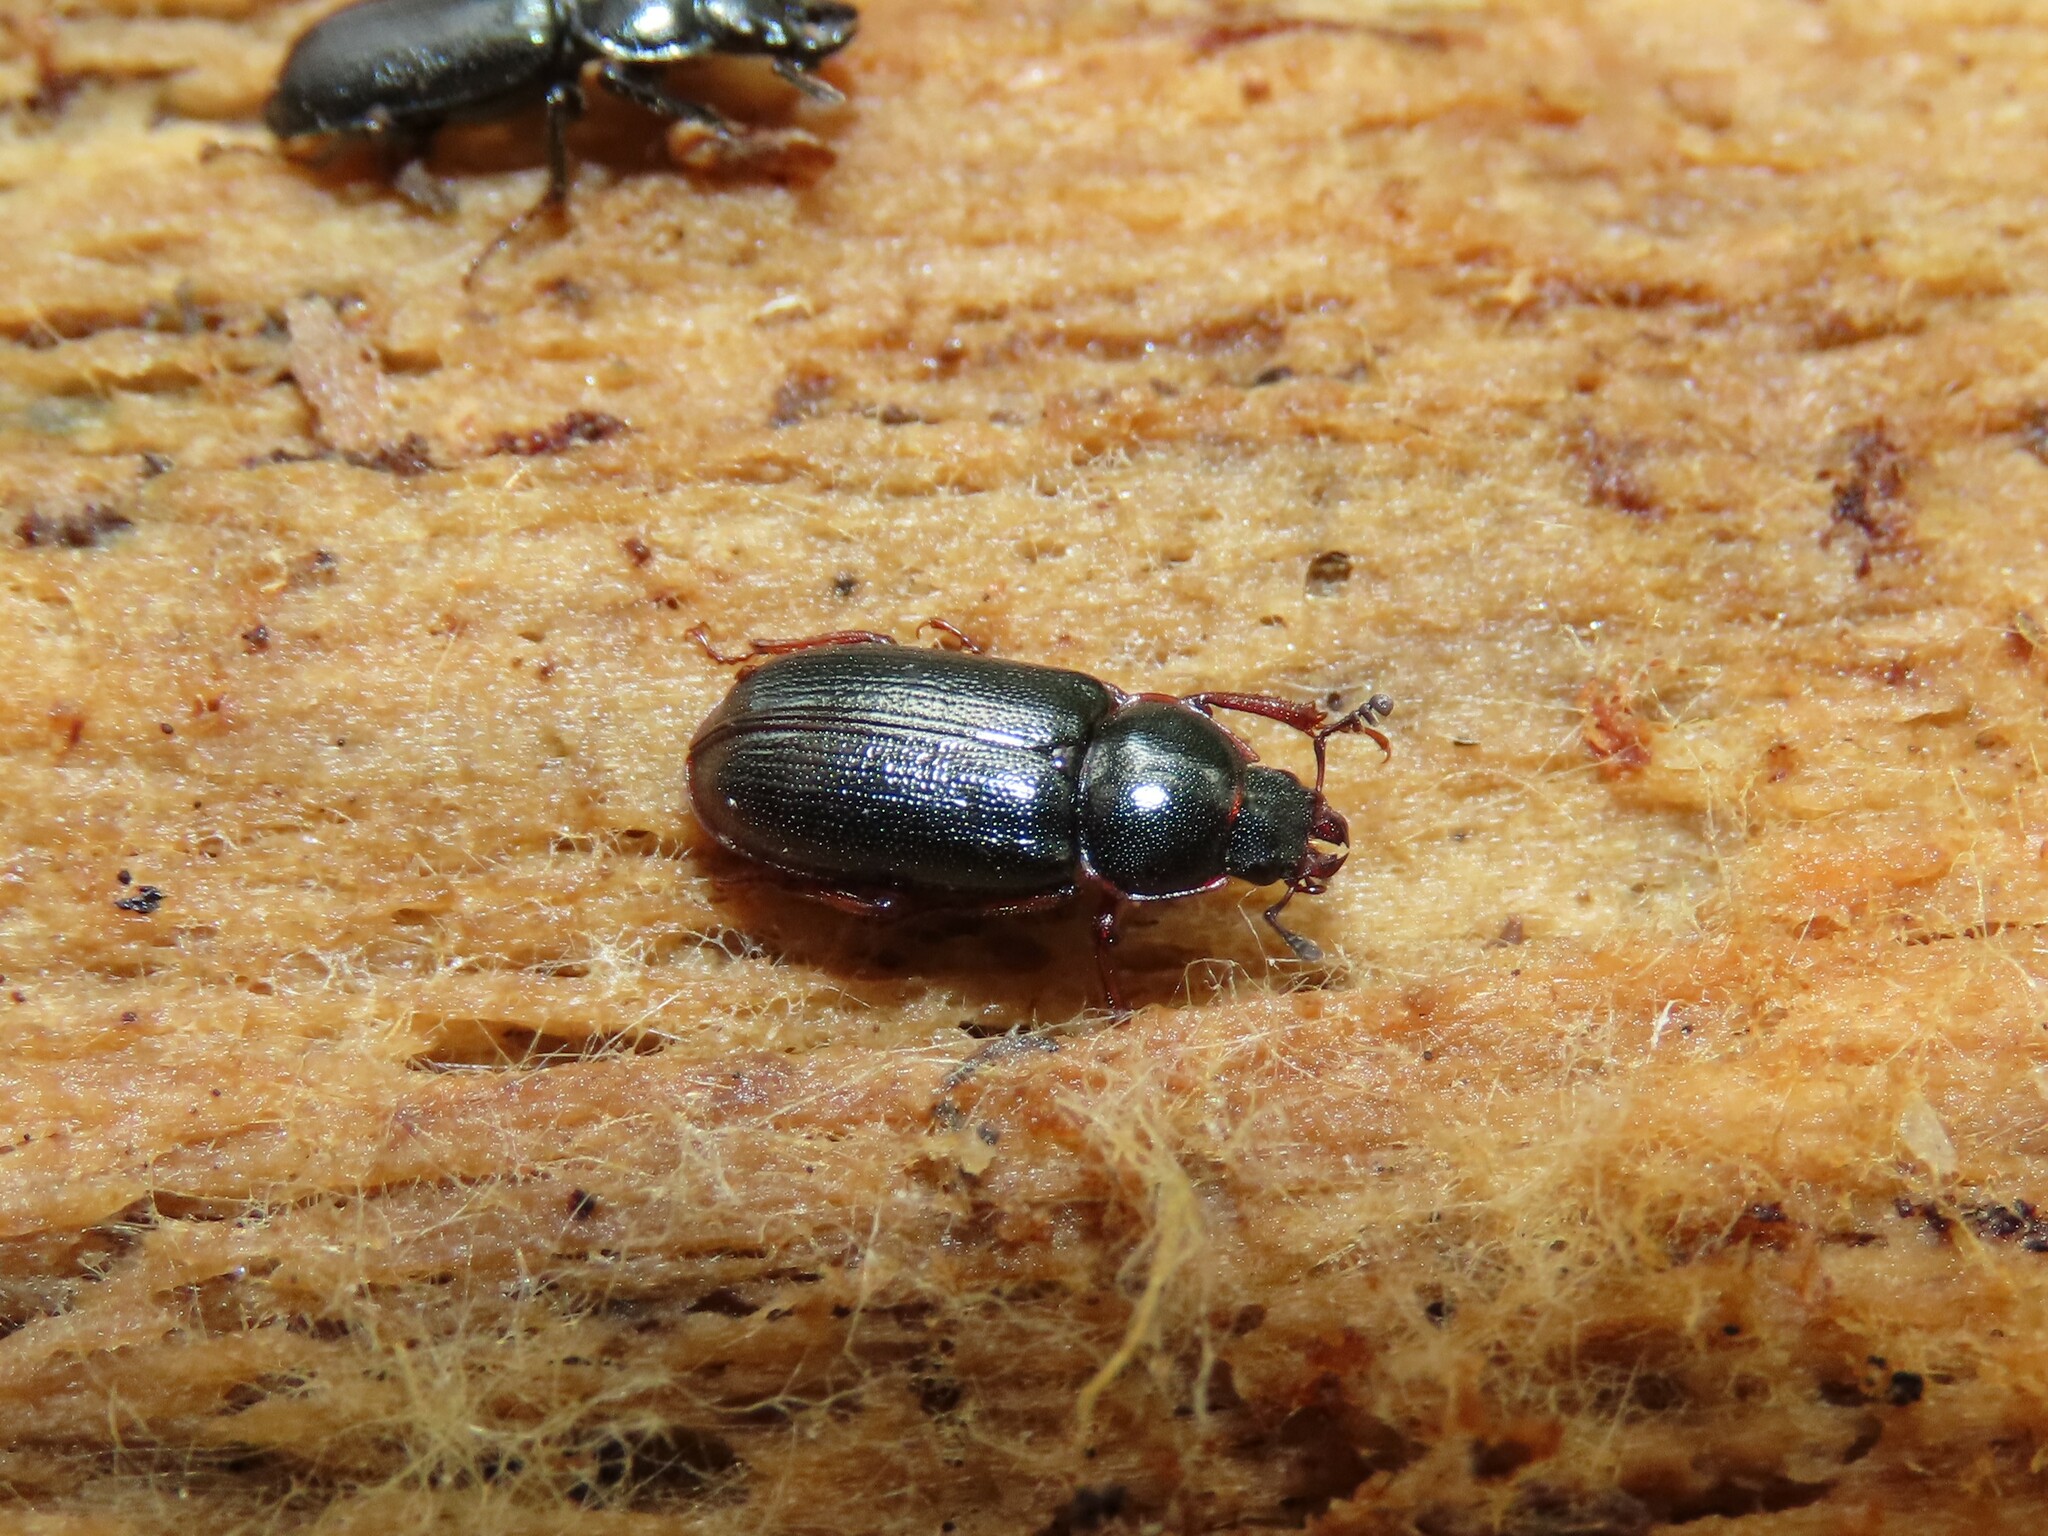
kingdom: Animalia
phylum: Arthropoda
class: Insecta
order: Coleoptera
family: Lucanidae
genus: Platycerus
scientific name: Platycerus quercus
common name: Oak stag beetle
